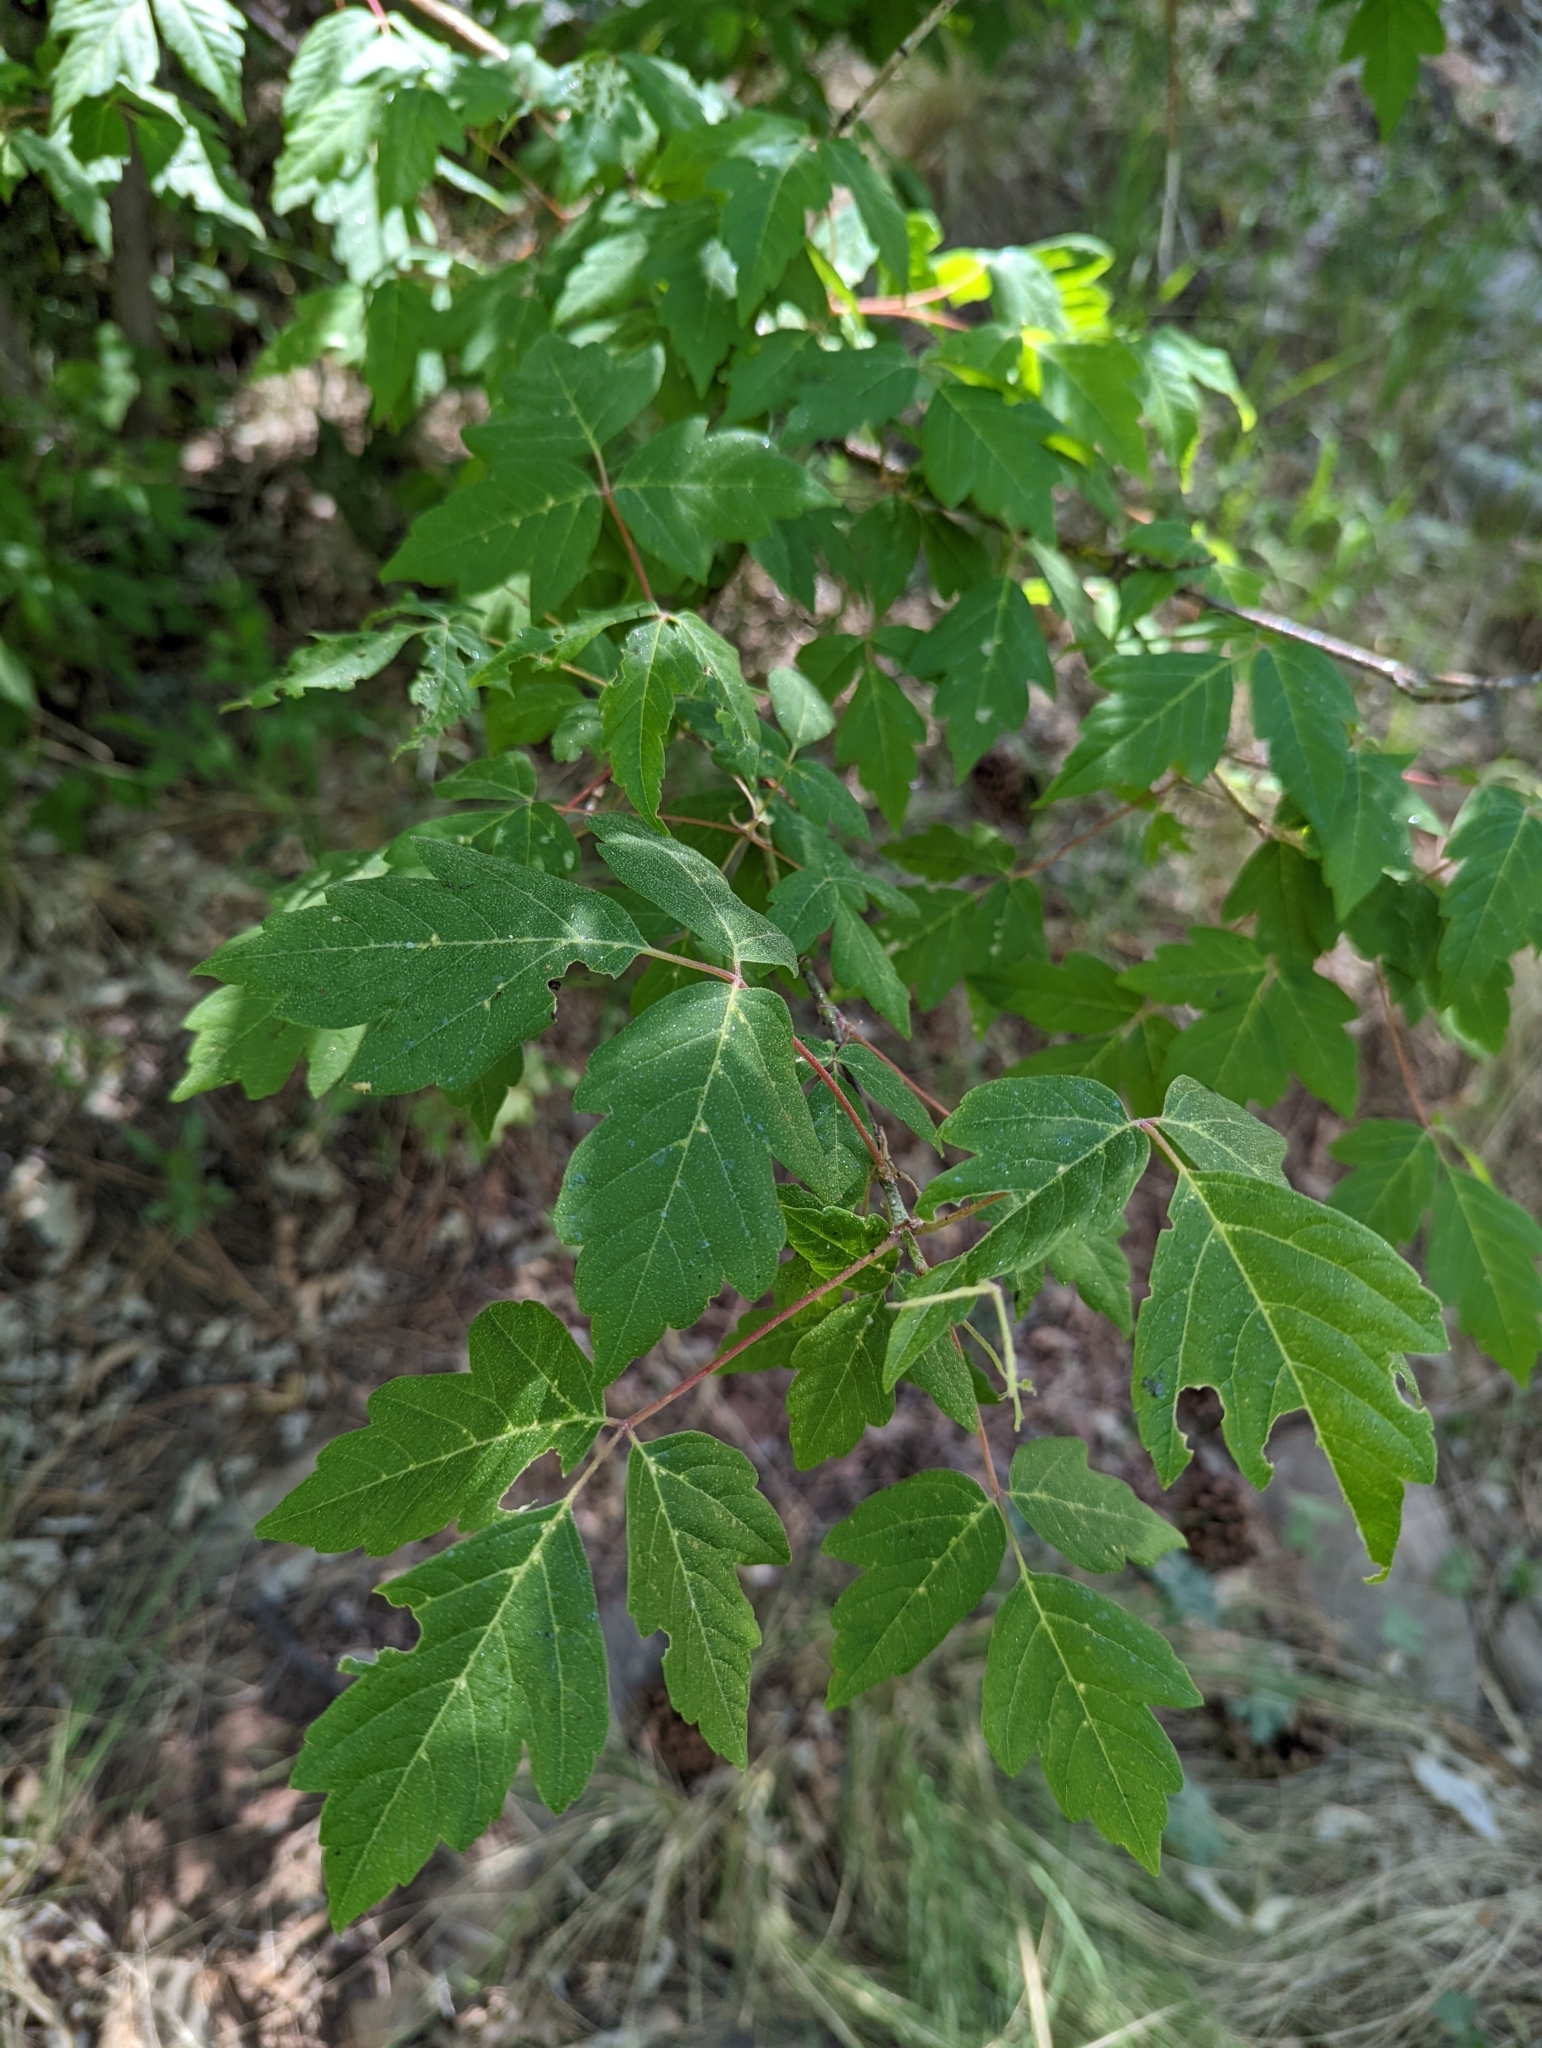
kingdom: Plantae
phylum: Tracheophyta
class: Magnoliopsida
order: Sapindales
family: Sapindaceae
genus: Acer
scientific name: Acer negundo
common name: Ashleaf maple
